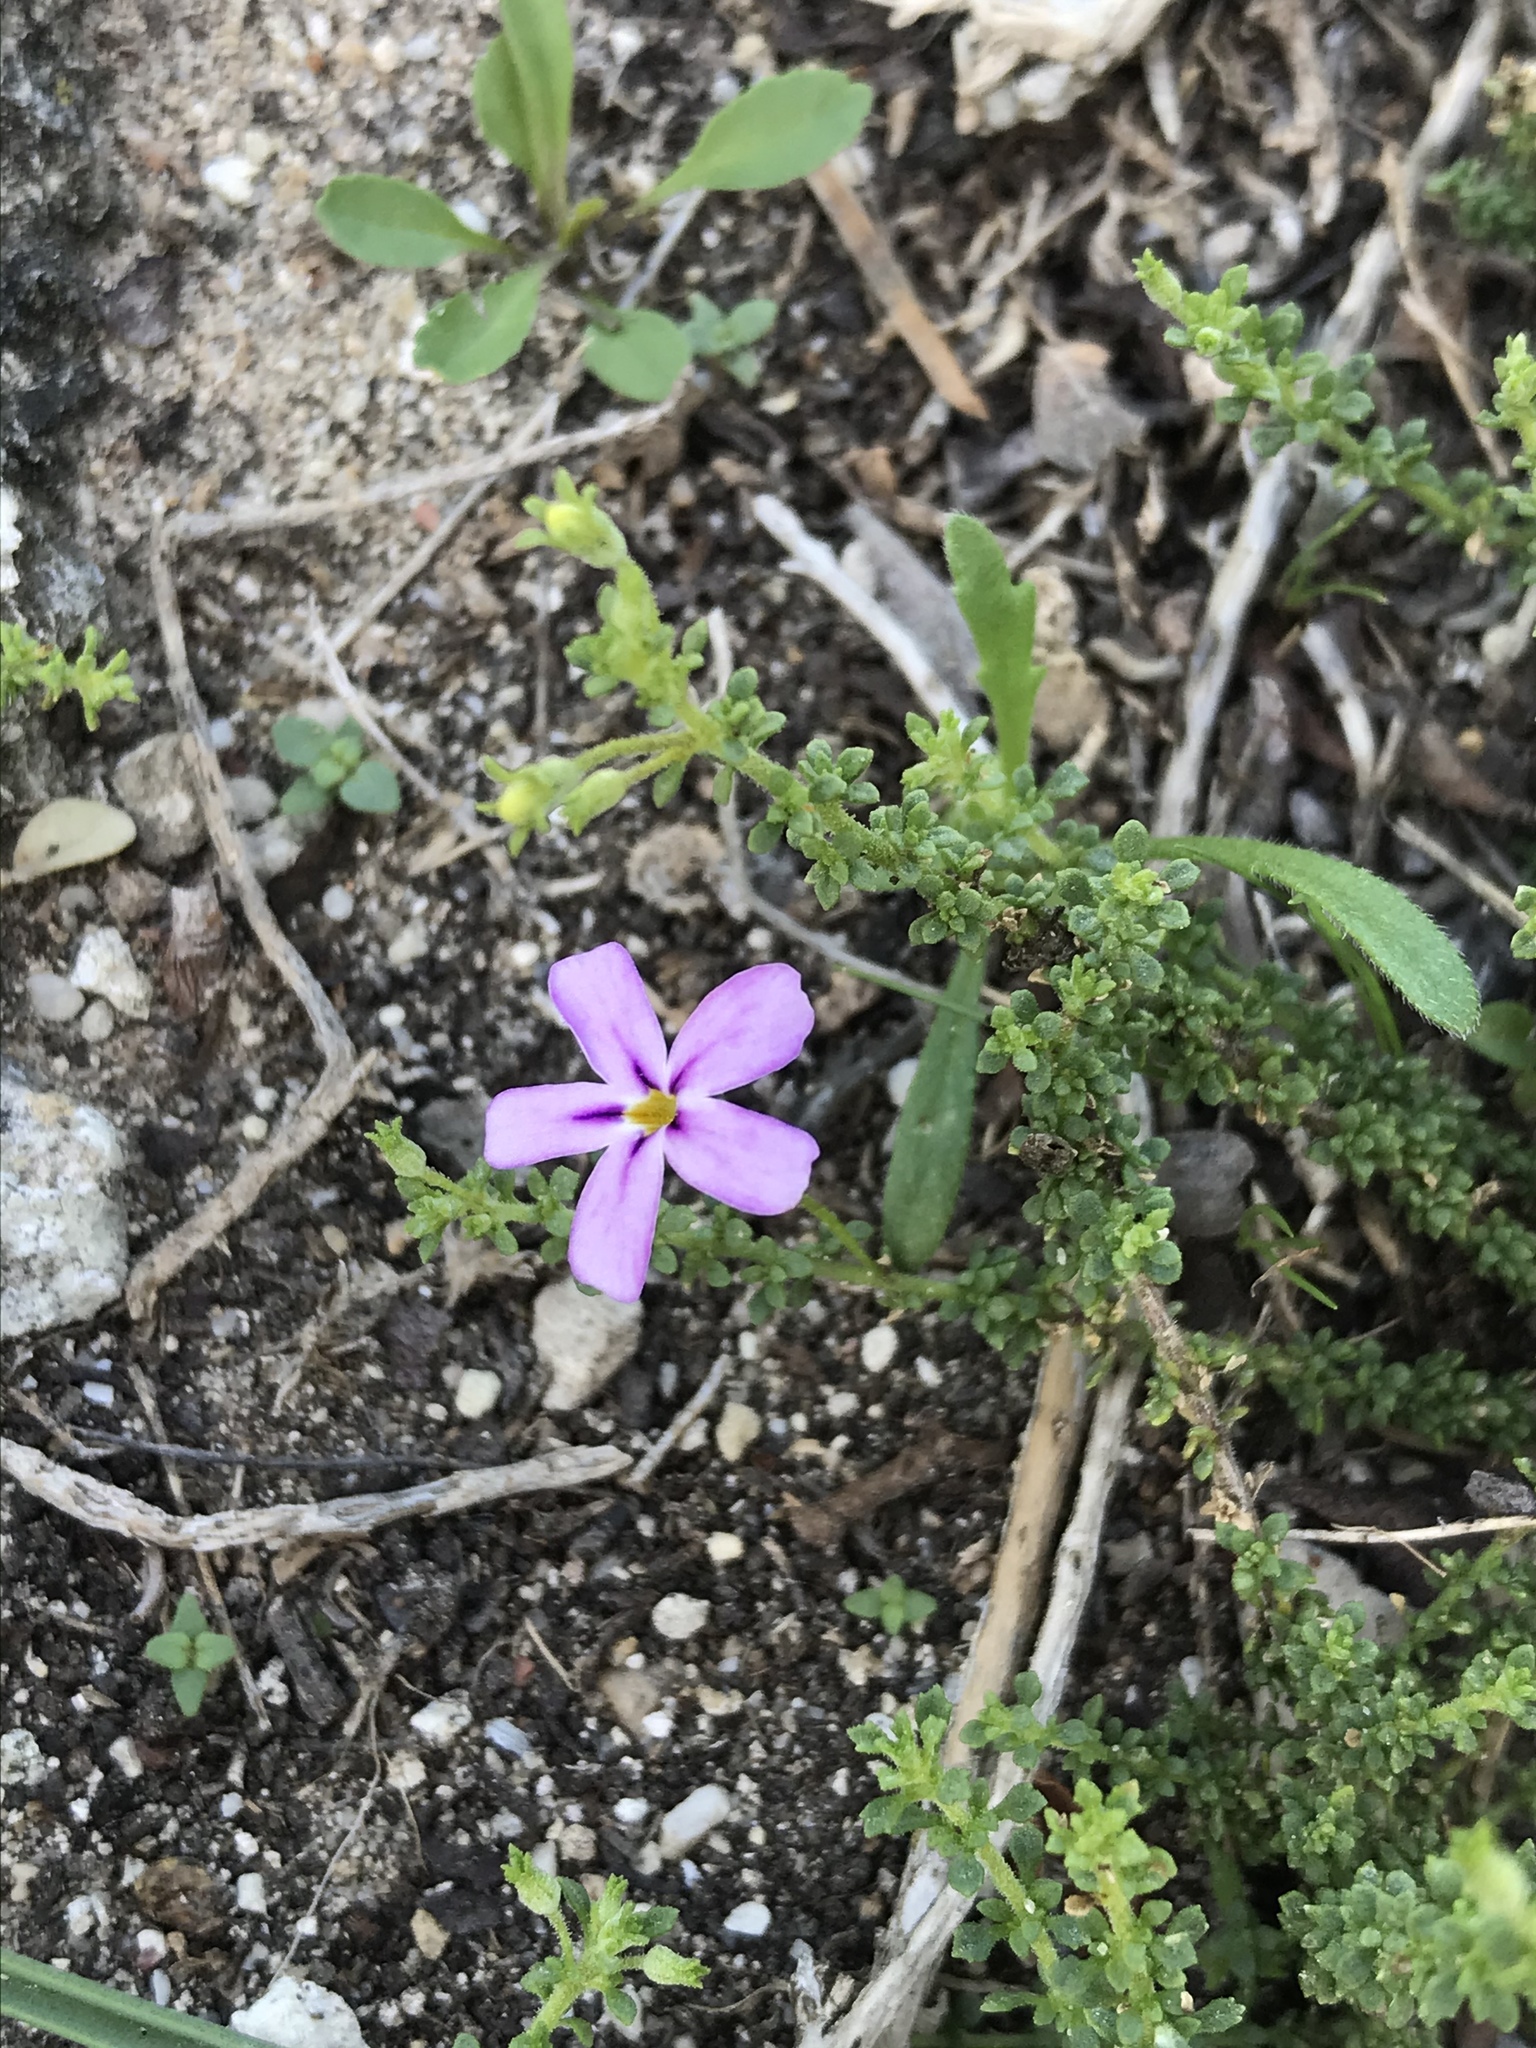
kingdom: Plantae
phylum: Tracheophyta
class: Magnoliopsida
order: Lamiales
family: Scrophulariaceae
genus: Jamesbrittenia
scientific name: Jamesbrittenia stellata
